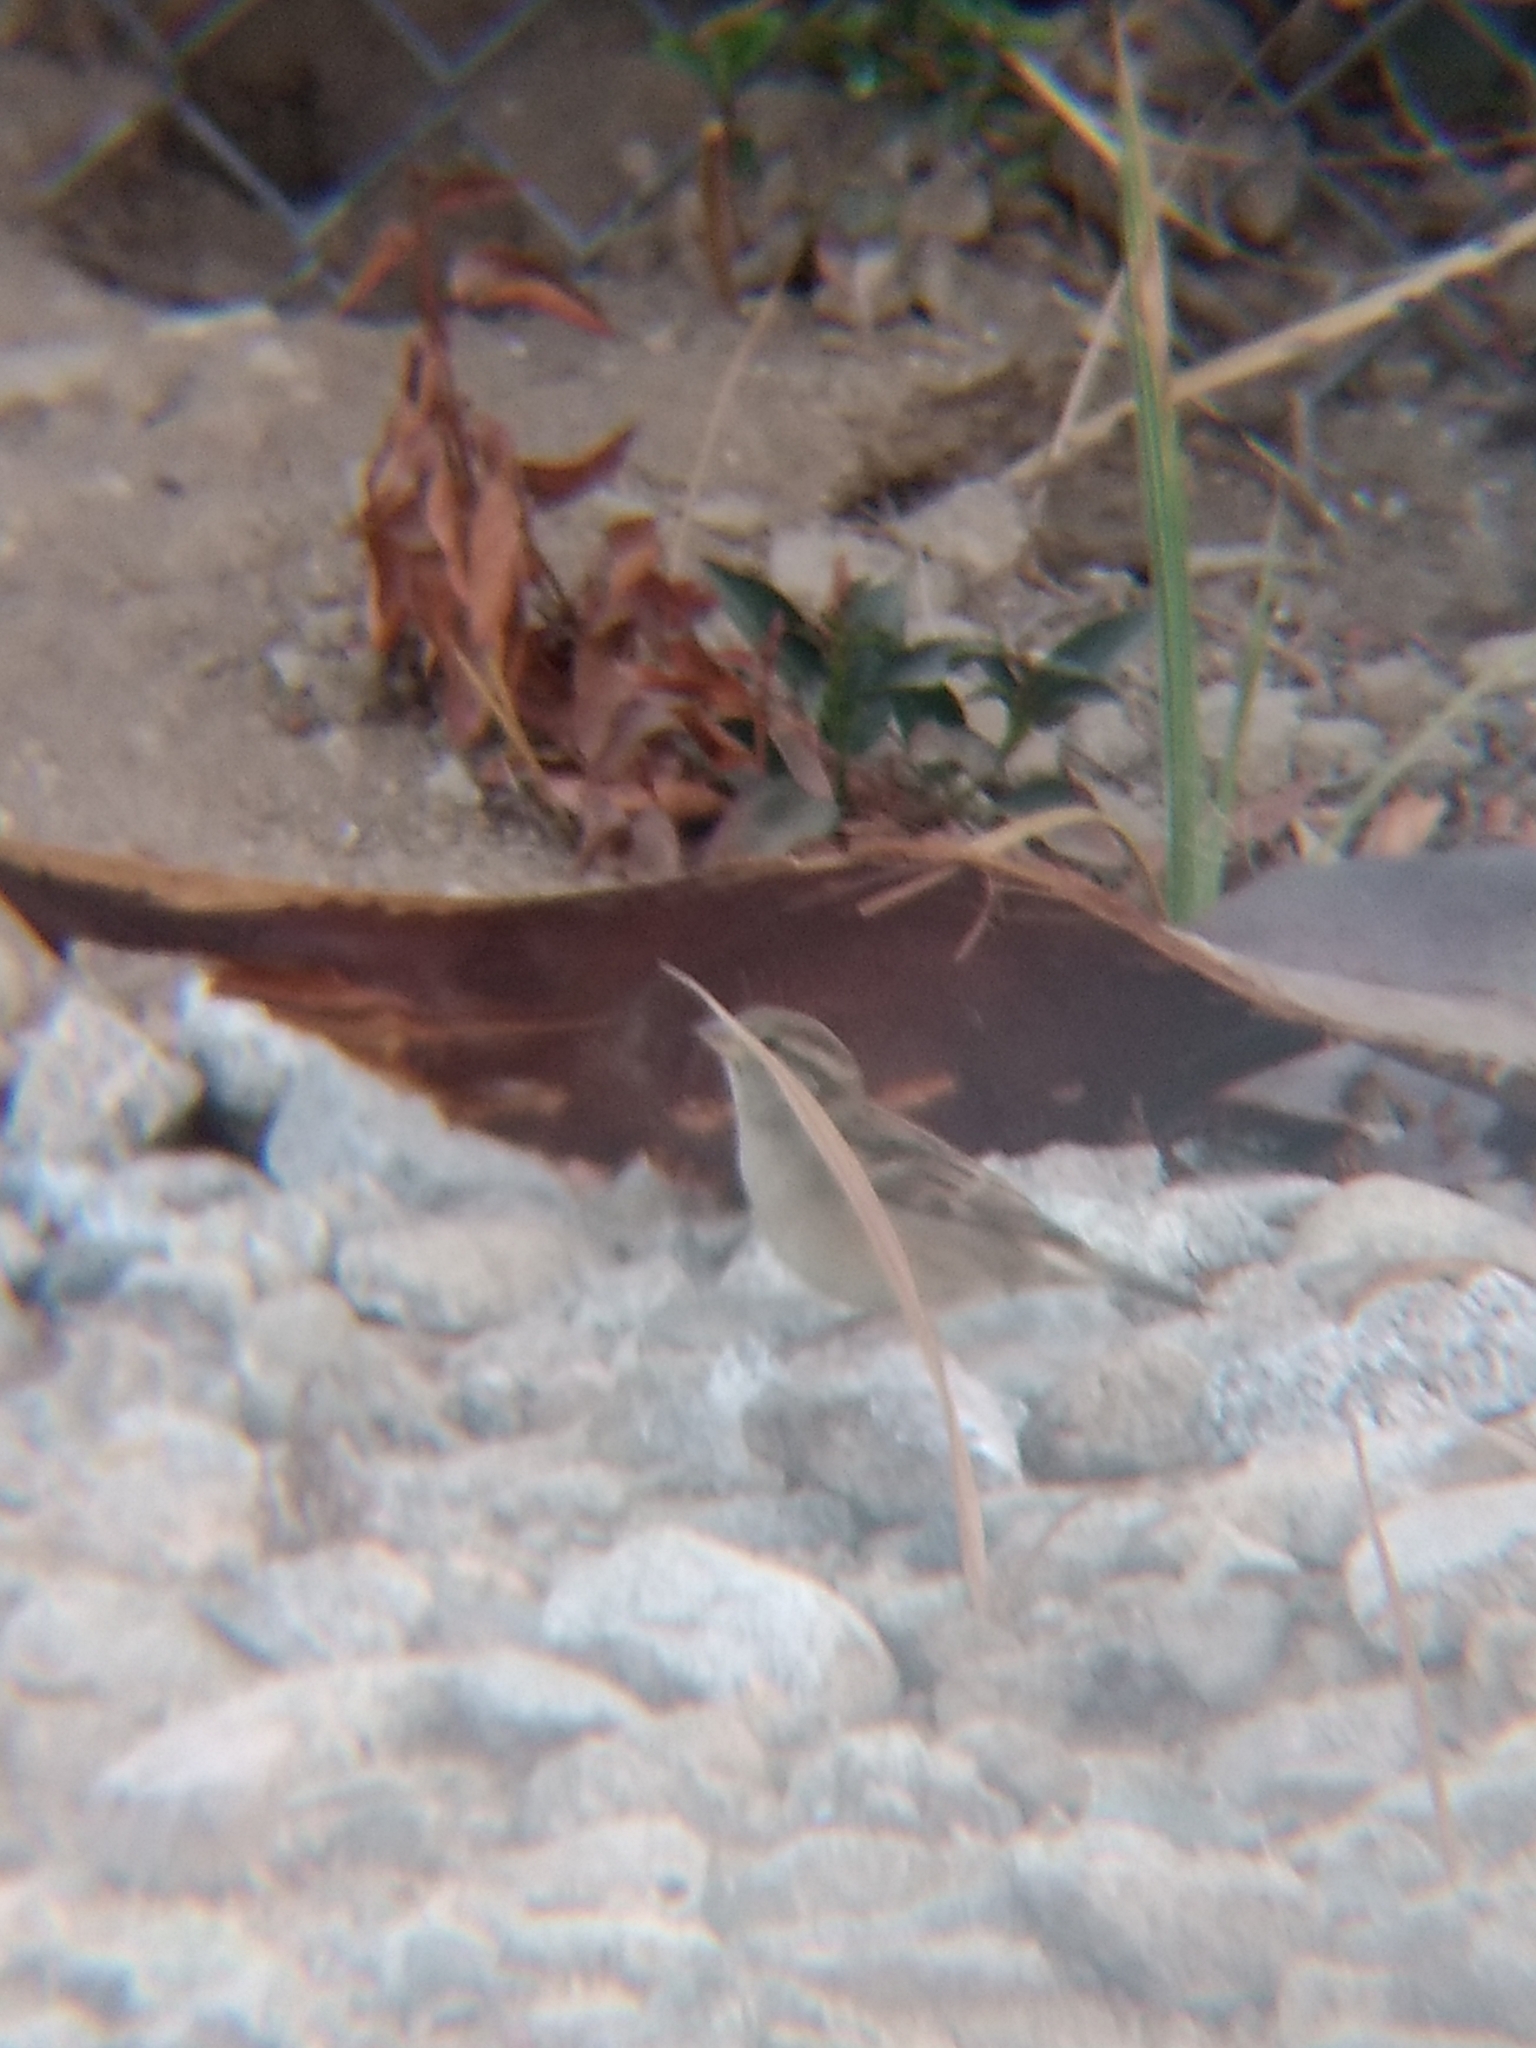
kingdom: Animalia
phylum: Chordata
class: Aves
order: Passeriformes
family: Passeridae
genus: Passer
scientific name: Passer domesticus
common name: House sparrow
